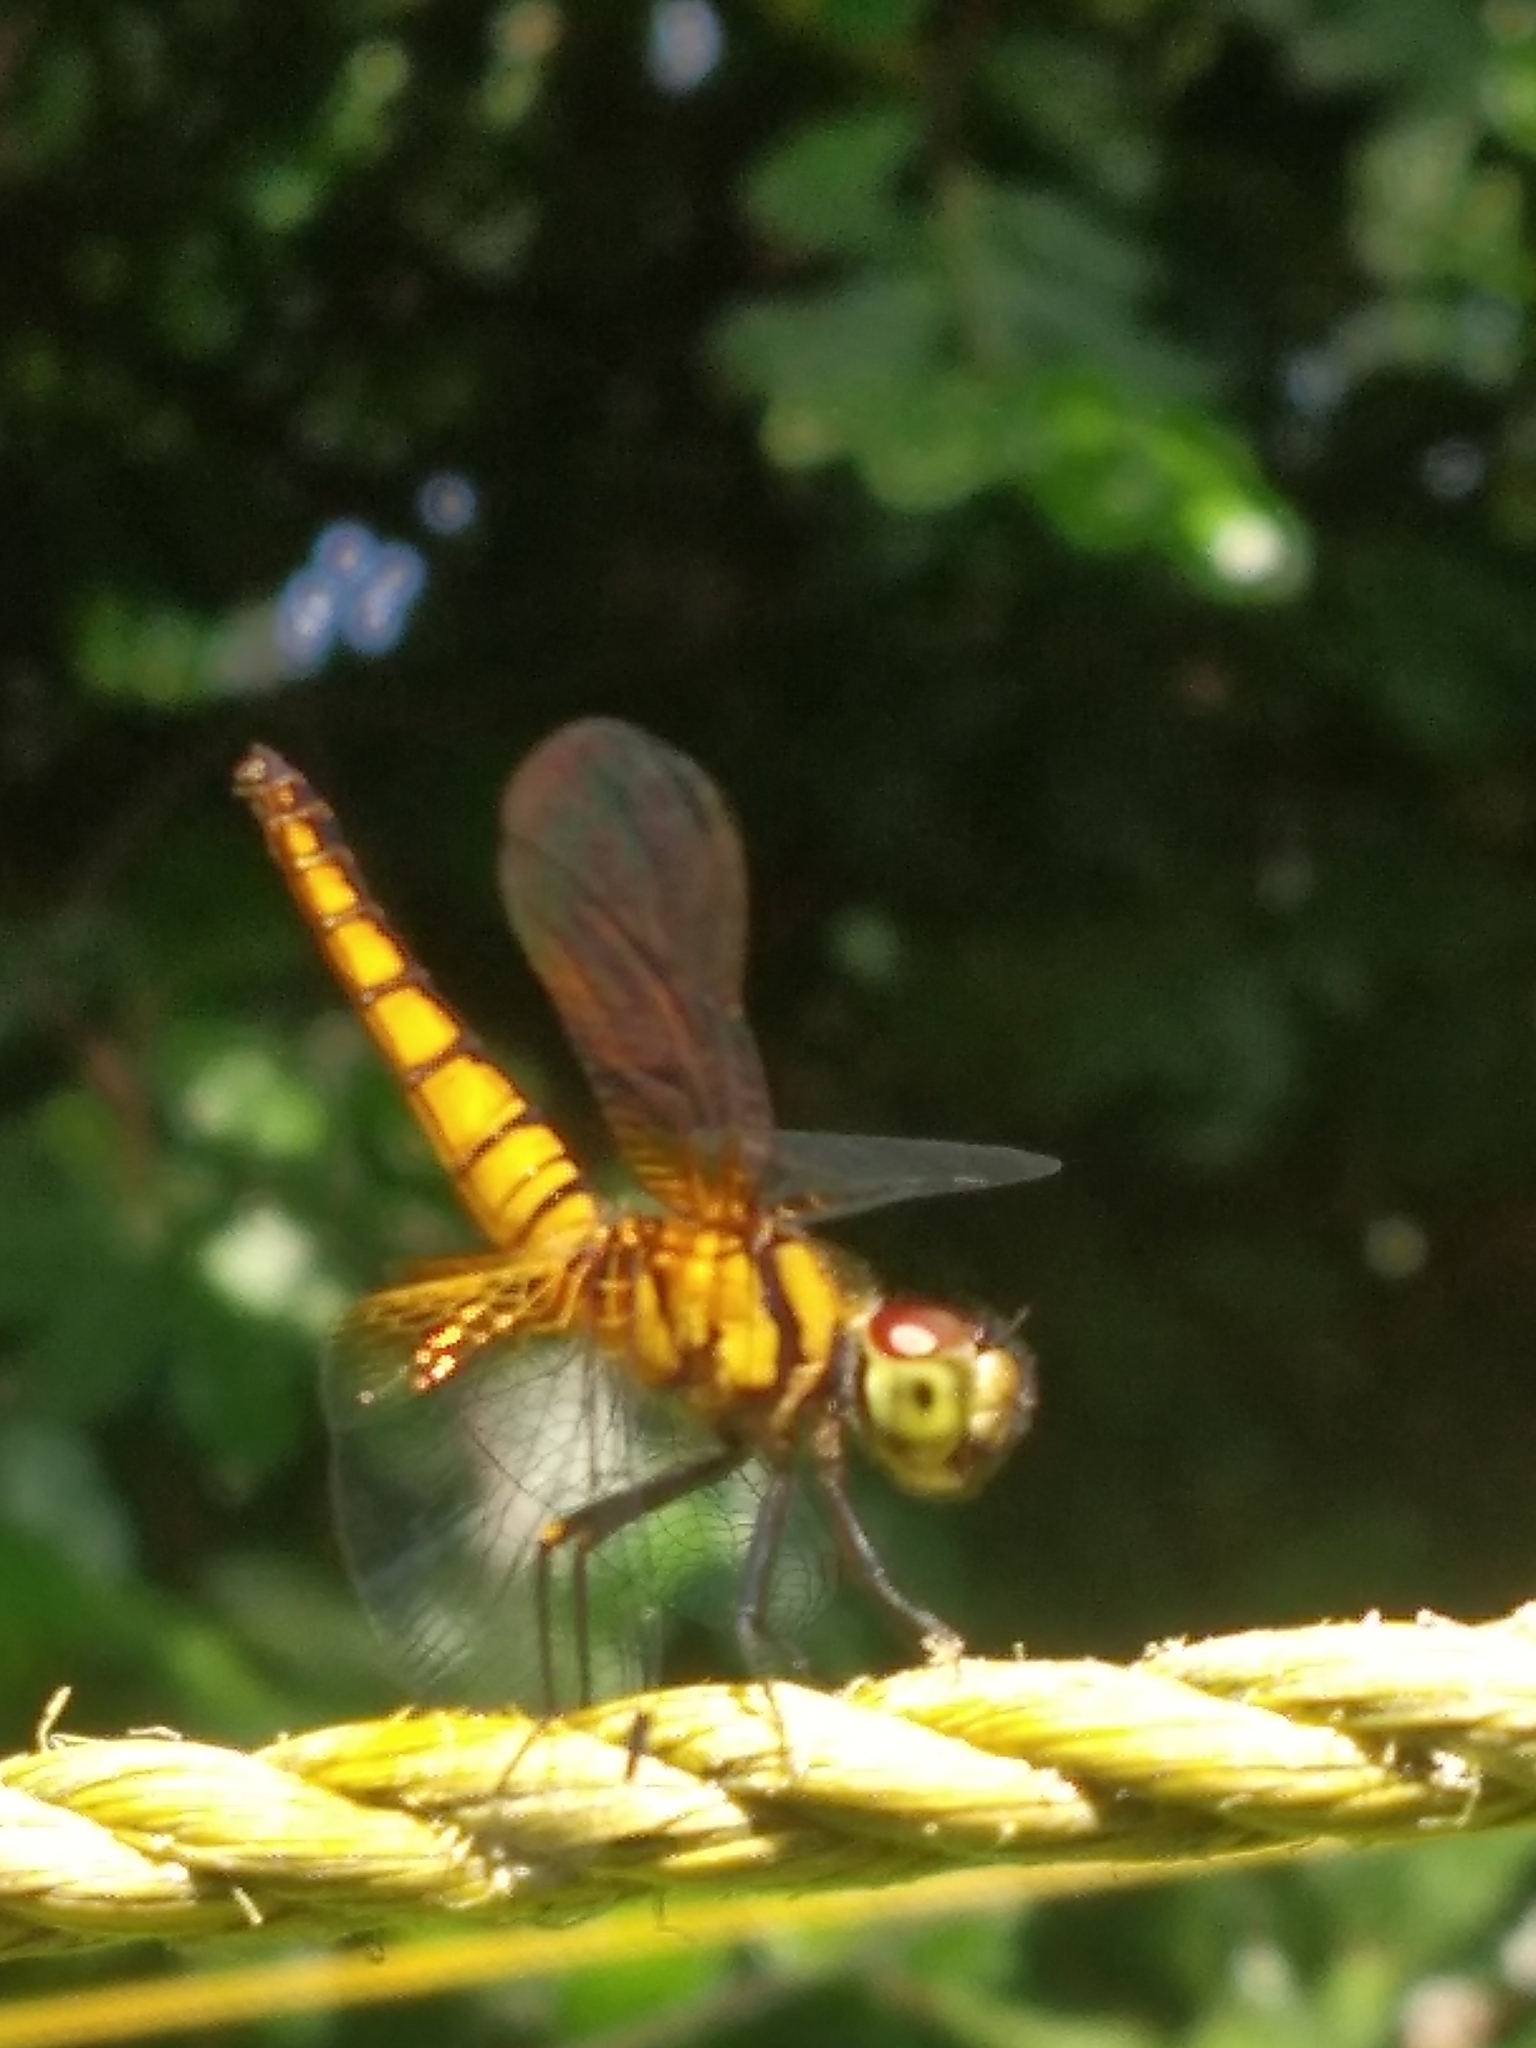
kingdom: Animalia
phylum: Arthropoda
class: Insecta
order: Odonata
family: Libellulidae
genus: Aethriamanta
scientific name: Aethriamanta brevipennis
